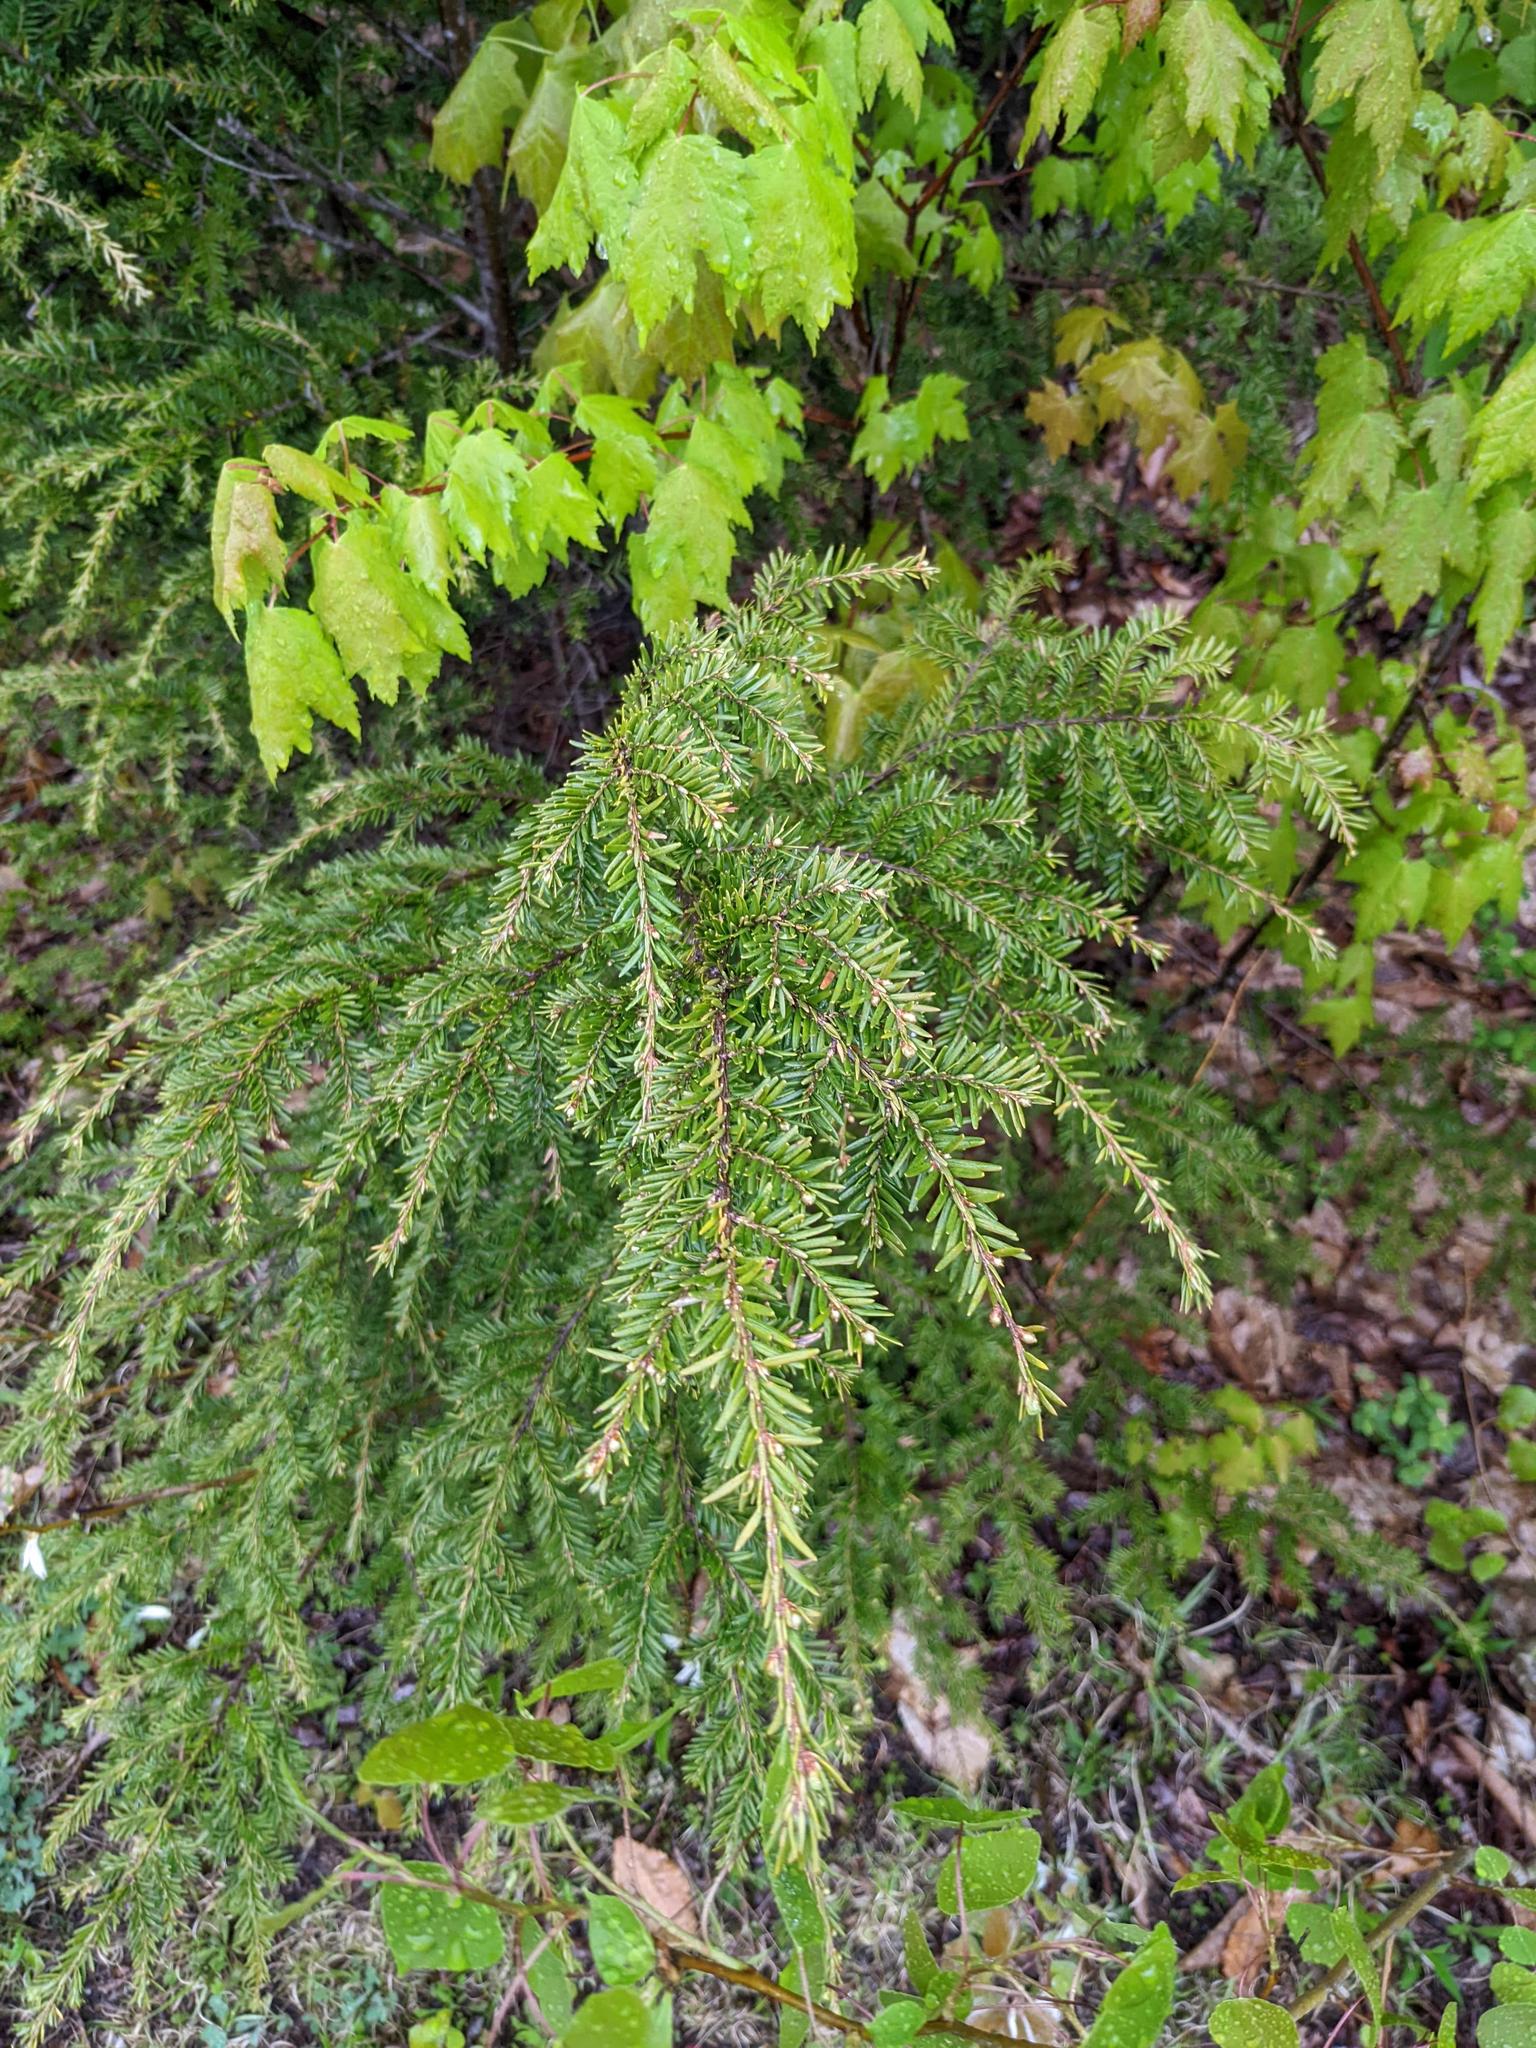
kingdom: Plantae
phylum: Tracheophyta
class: Pinopsida
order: Pinales
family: Pinaceae
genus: Tsuga
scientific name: Tsuga canadensis
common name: Eastern hemlock
